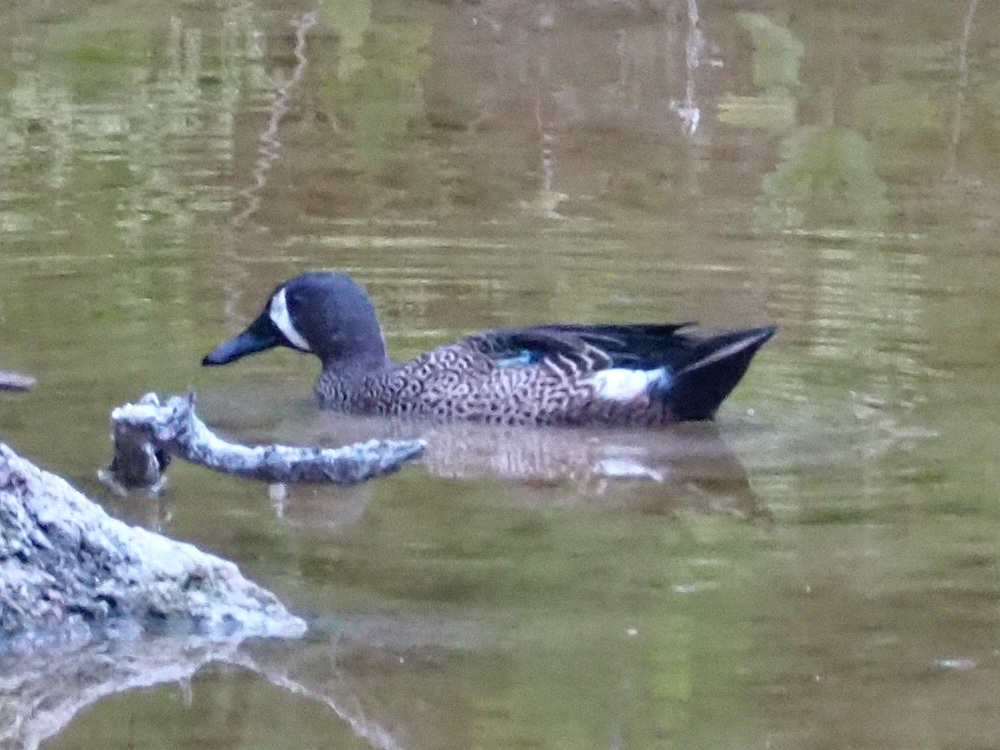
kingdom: Animalia
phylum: Chordata
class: Aves
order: Anseriformes
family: Anatidae
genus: Spatula
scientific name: Spatula discors
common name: Blue-winged teal
